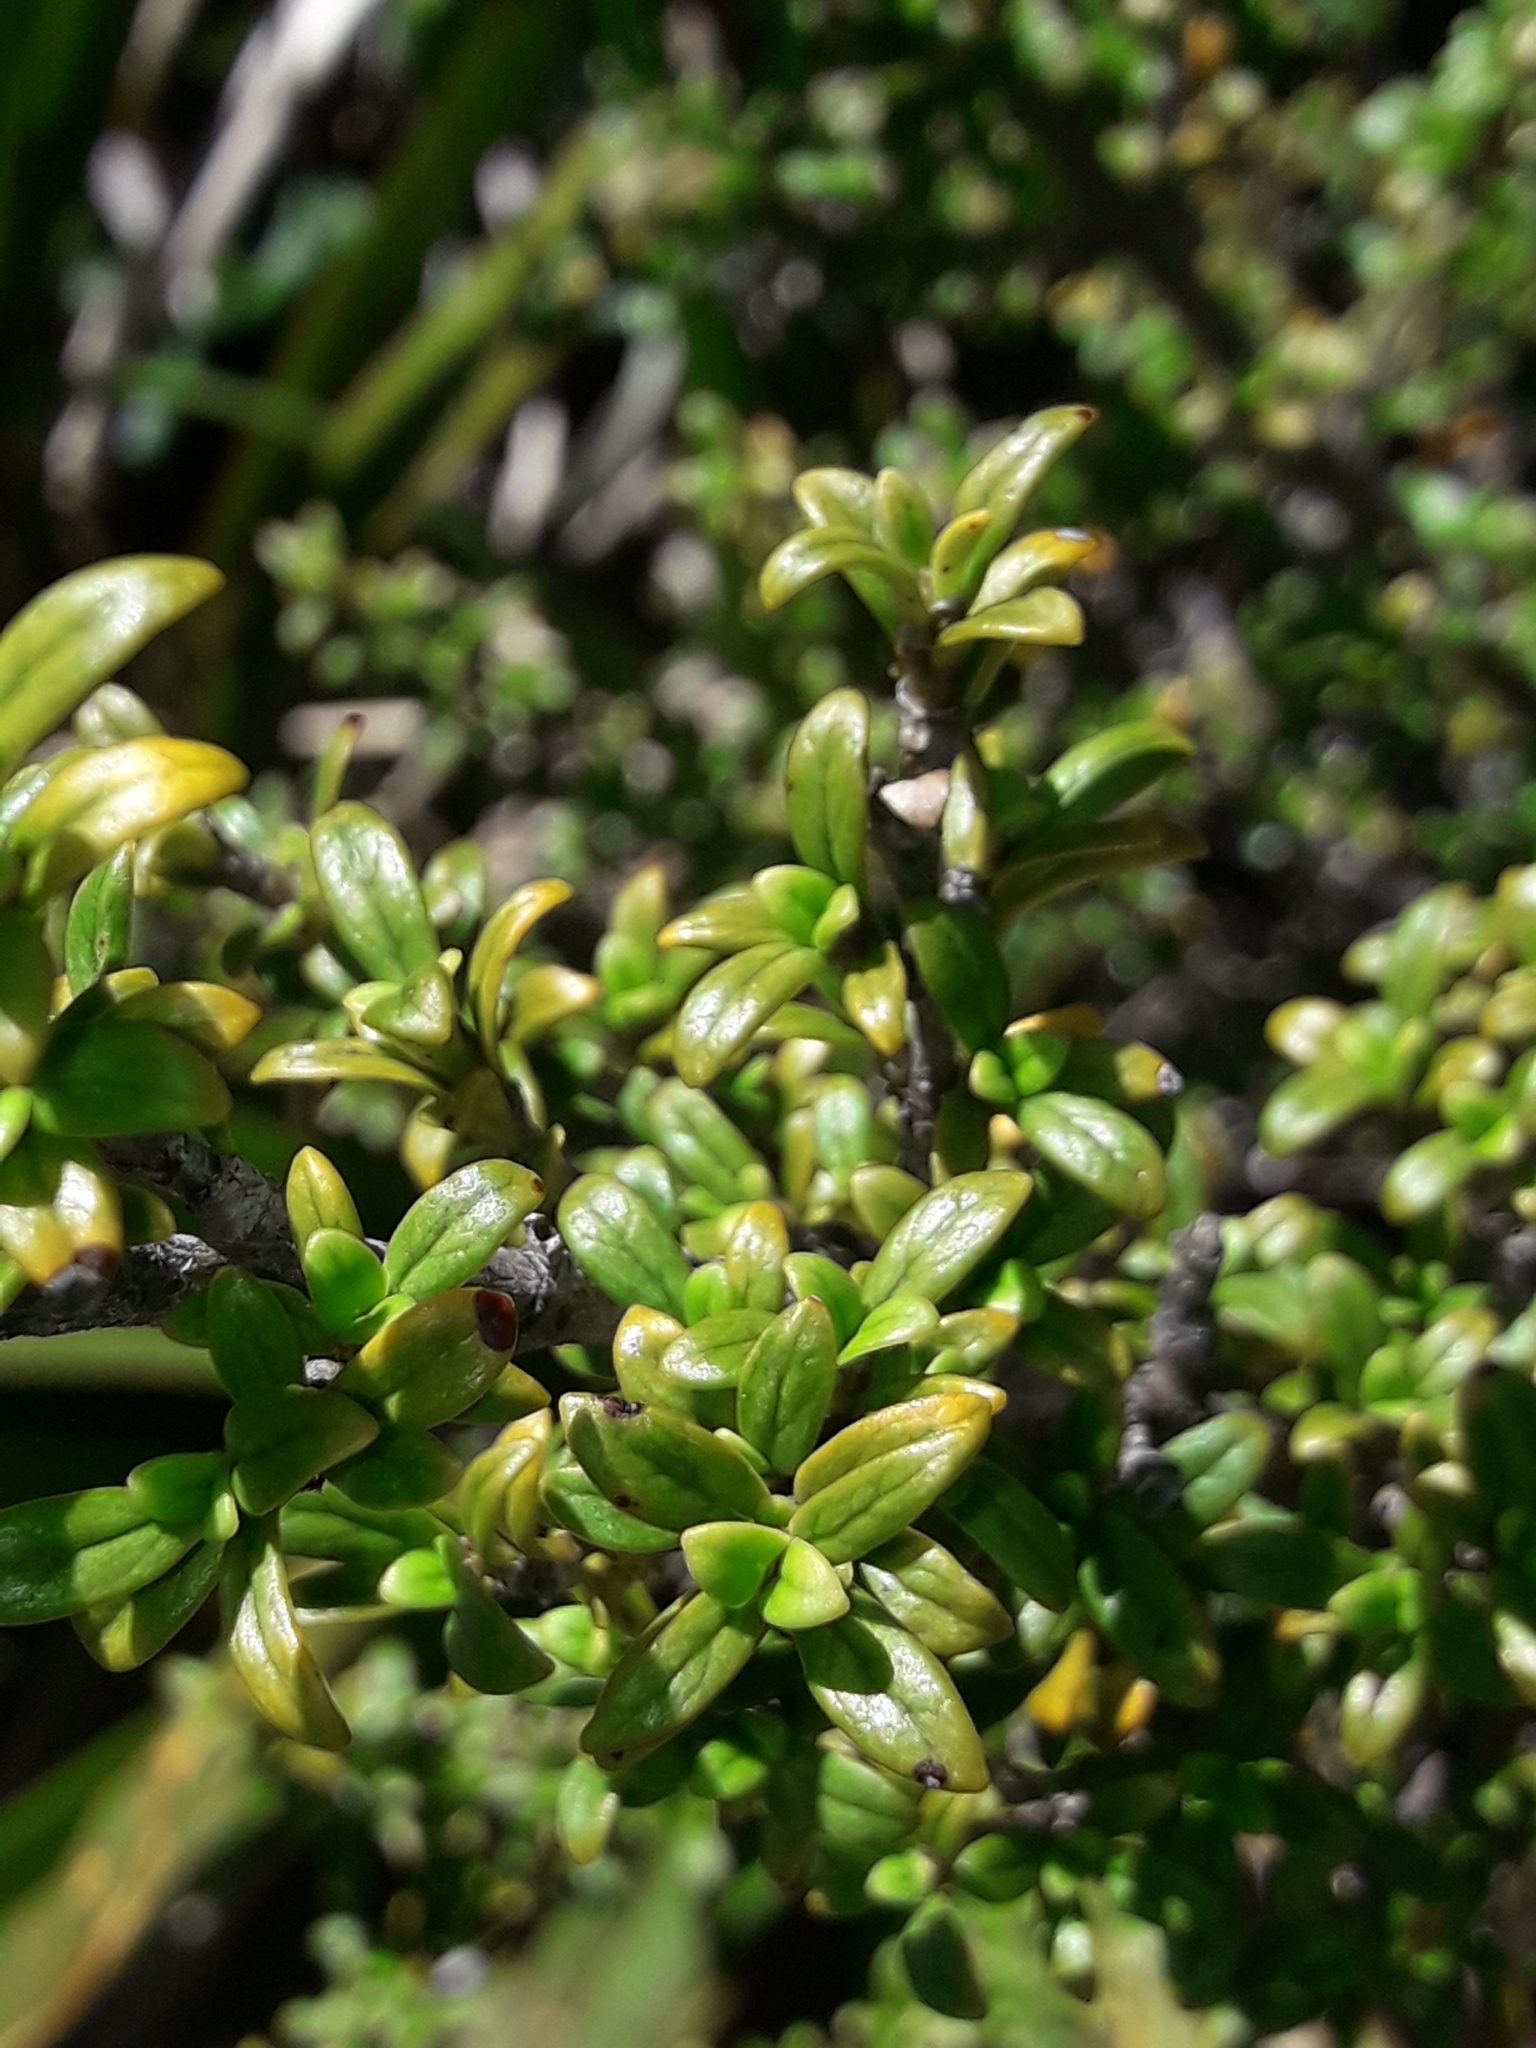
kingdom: Plantae
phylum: Tracheophyta
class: Magnoliopsida
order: Gentianales
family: Rubiaceae
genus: Coprosma
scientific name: Coprosma pseudocuneata
